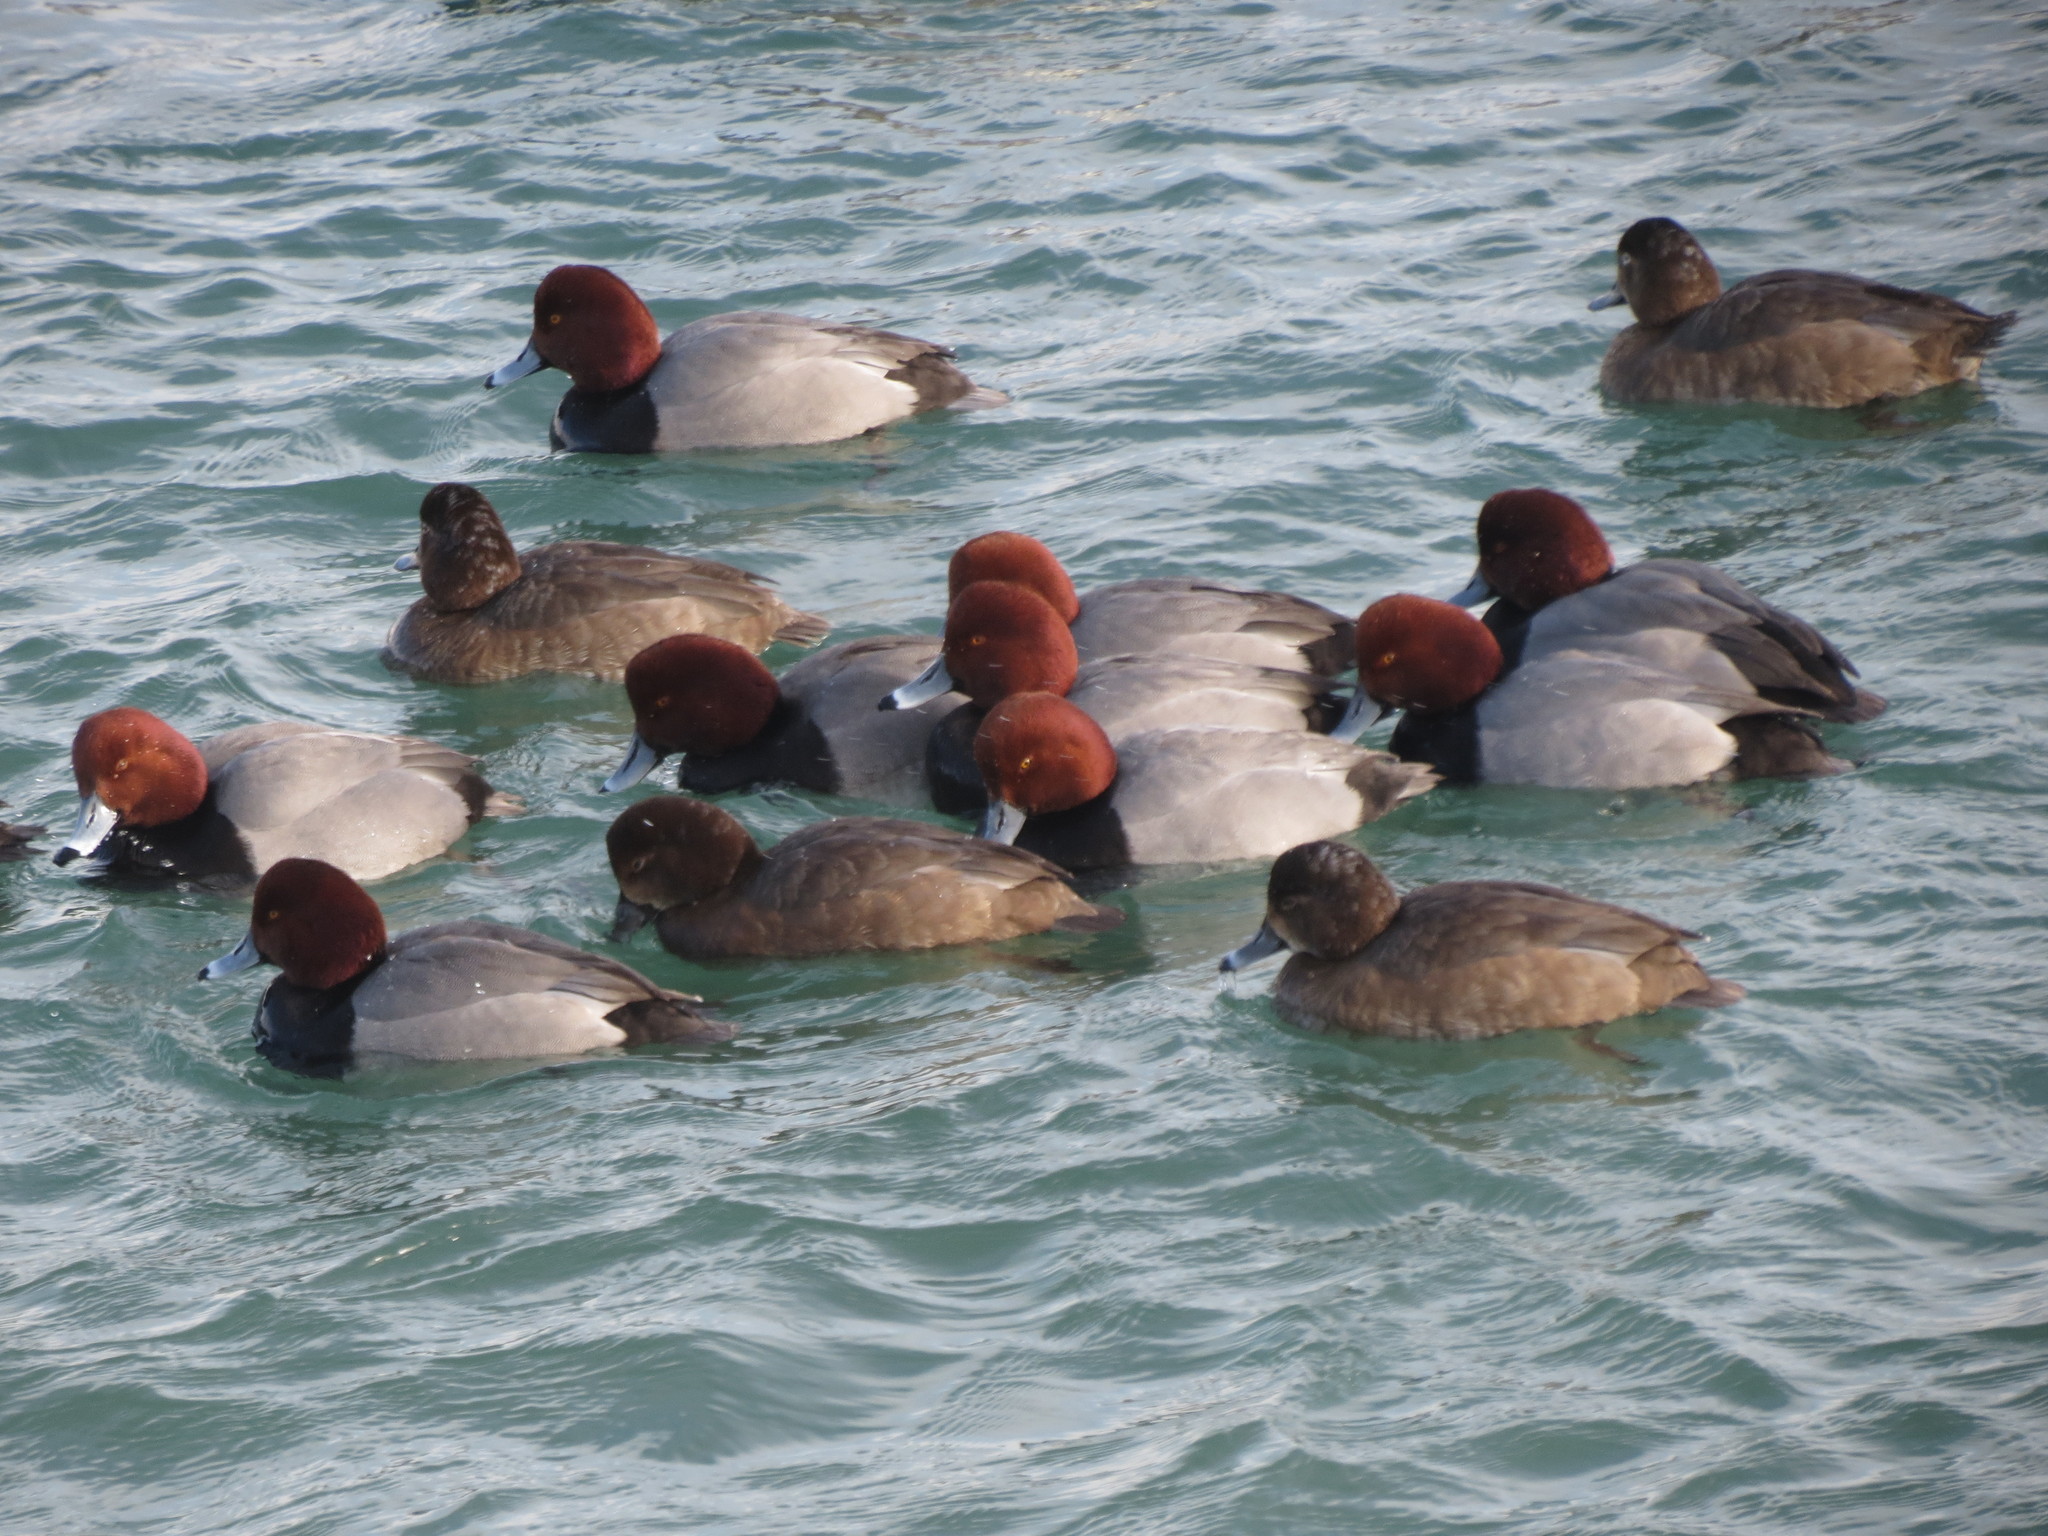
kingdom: Animalia
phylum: Chordata
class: Aves
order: Anseriformes
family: Anatidae
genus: Aythya
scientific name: Aythya americana
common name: Redhead
